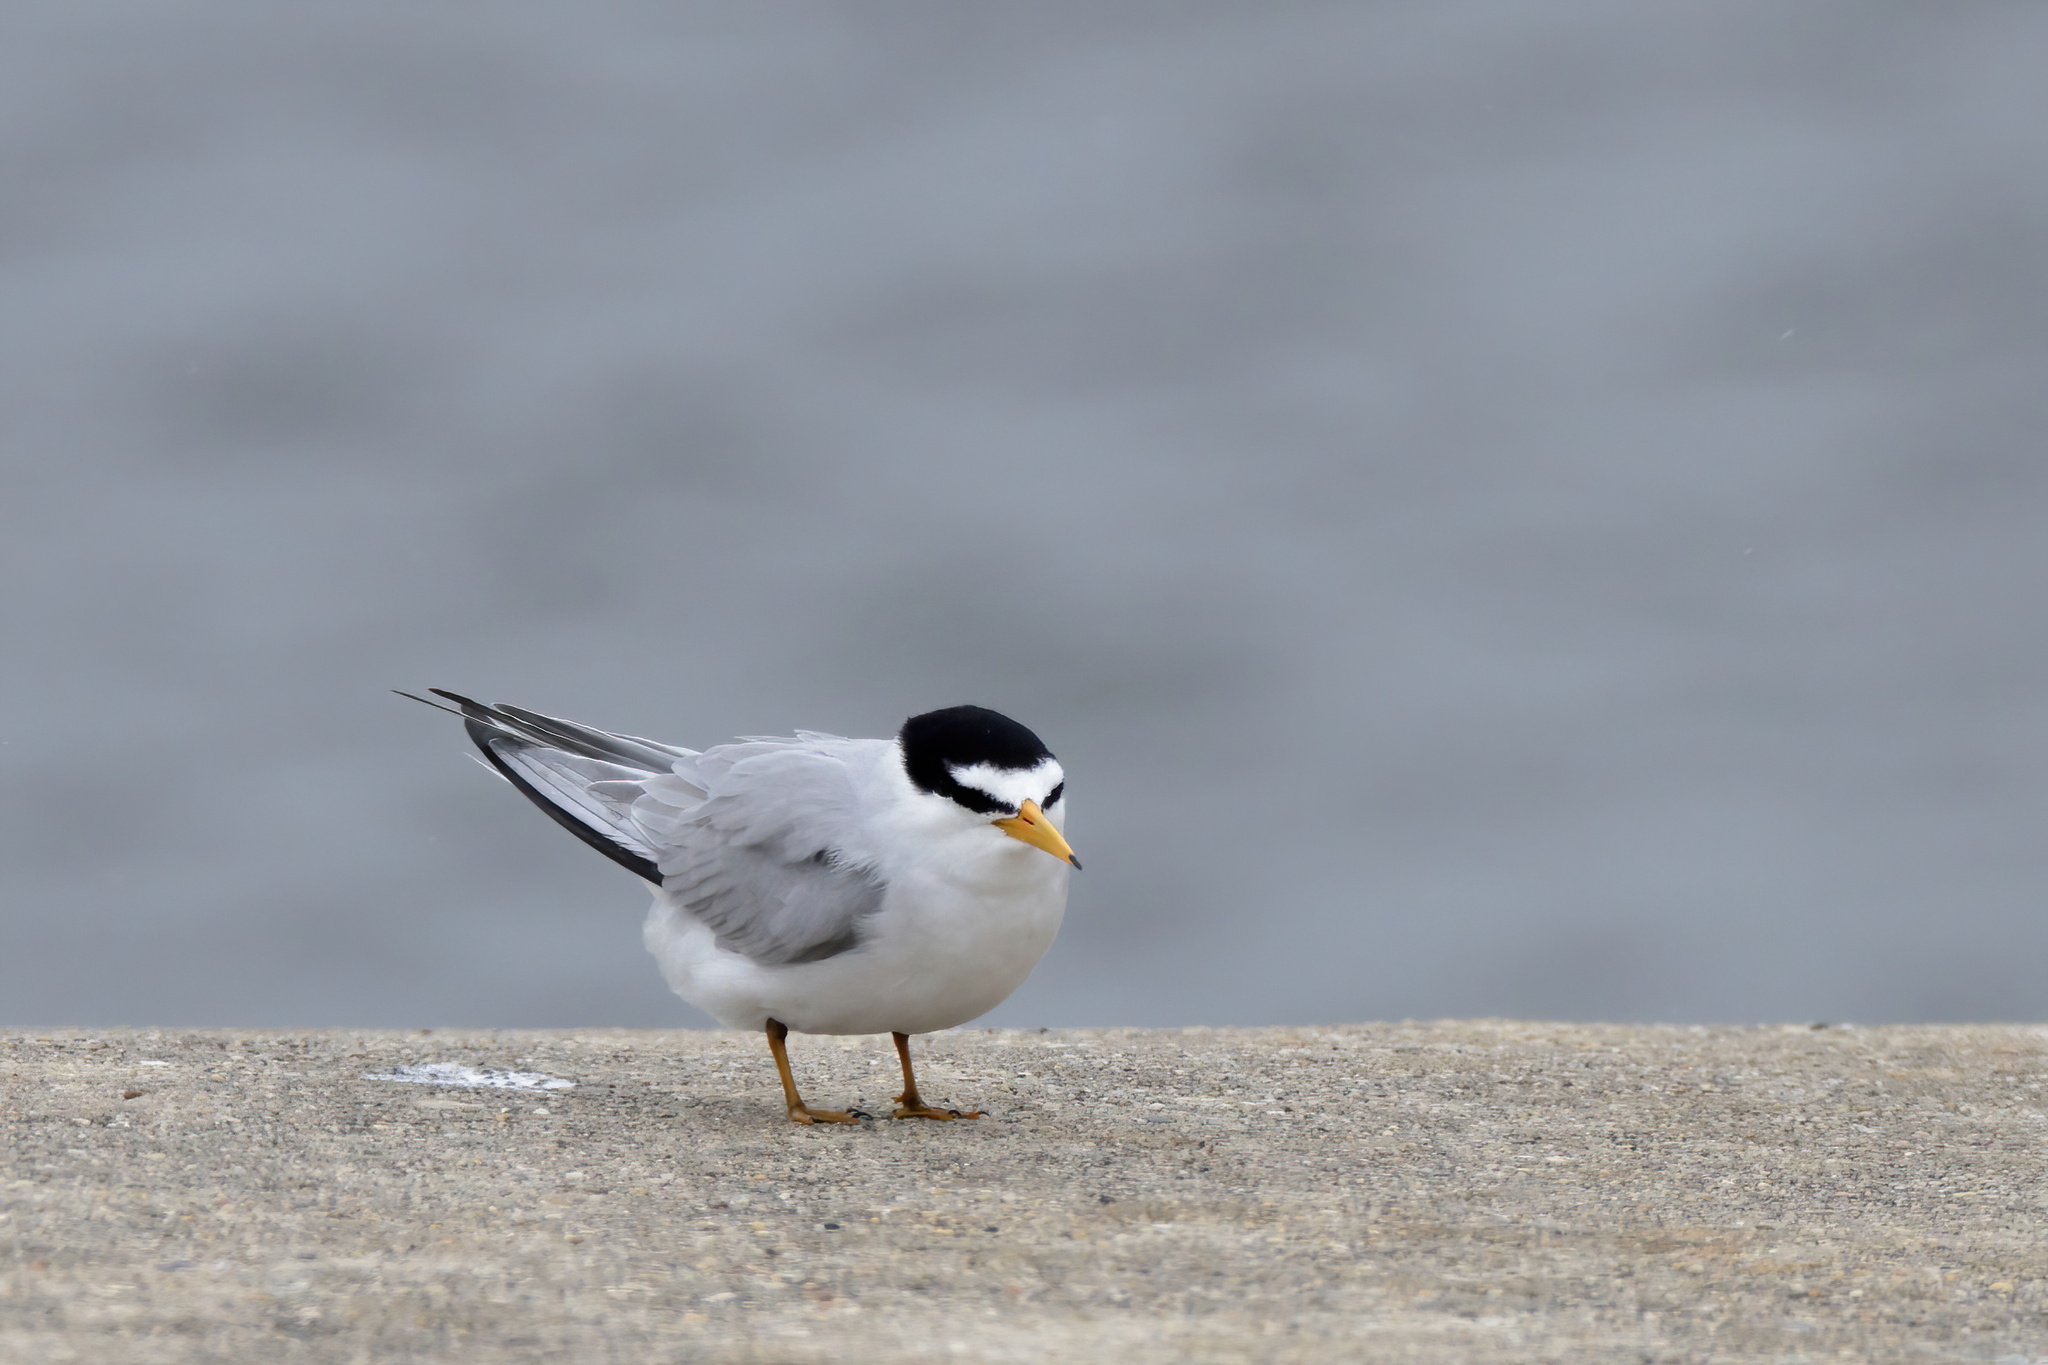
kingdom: Animalia
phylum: Chordata
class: Aves
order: Charadriiformes
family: Laridae
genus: Sternula
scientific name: Sternula antillarum
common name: Least tern
